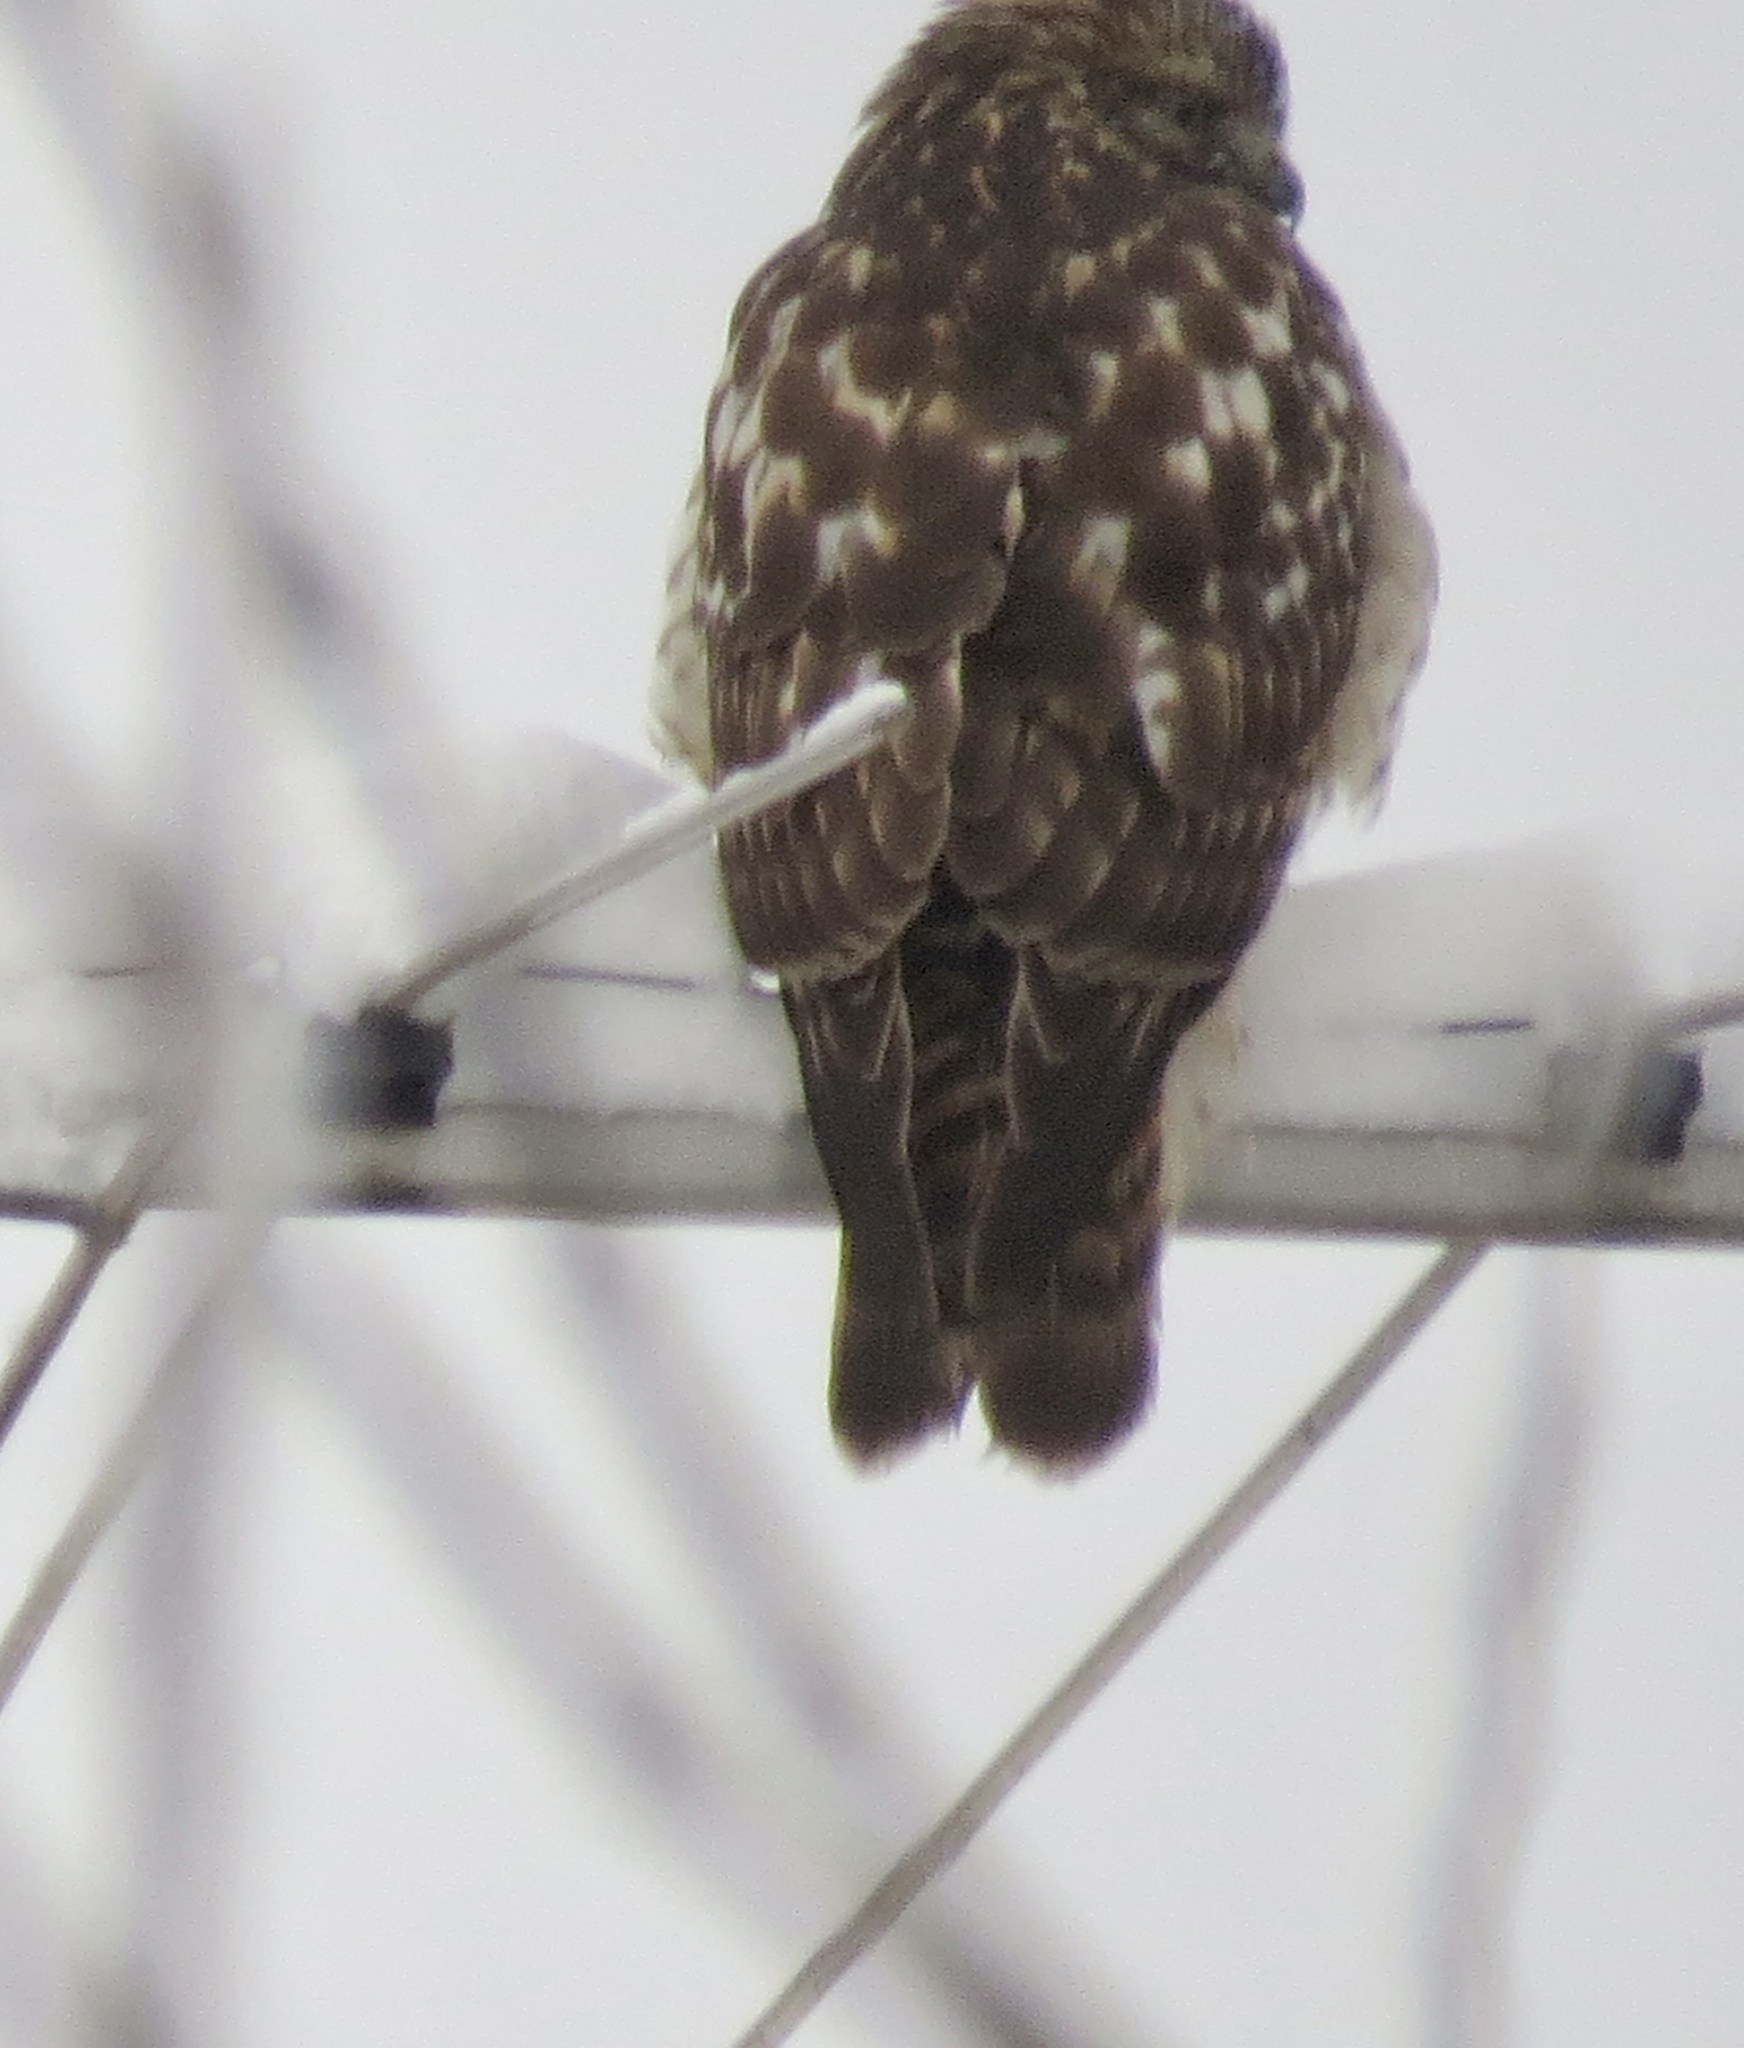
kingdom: Animalia
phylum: Chordata
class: Aves
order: Accipitriformes
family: Accipitridae
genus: Buteo
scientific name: Buteo lineatus
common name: Red-shouldered hawk
